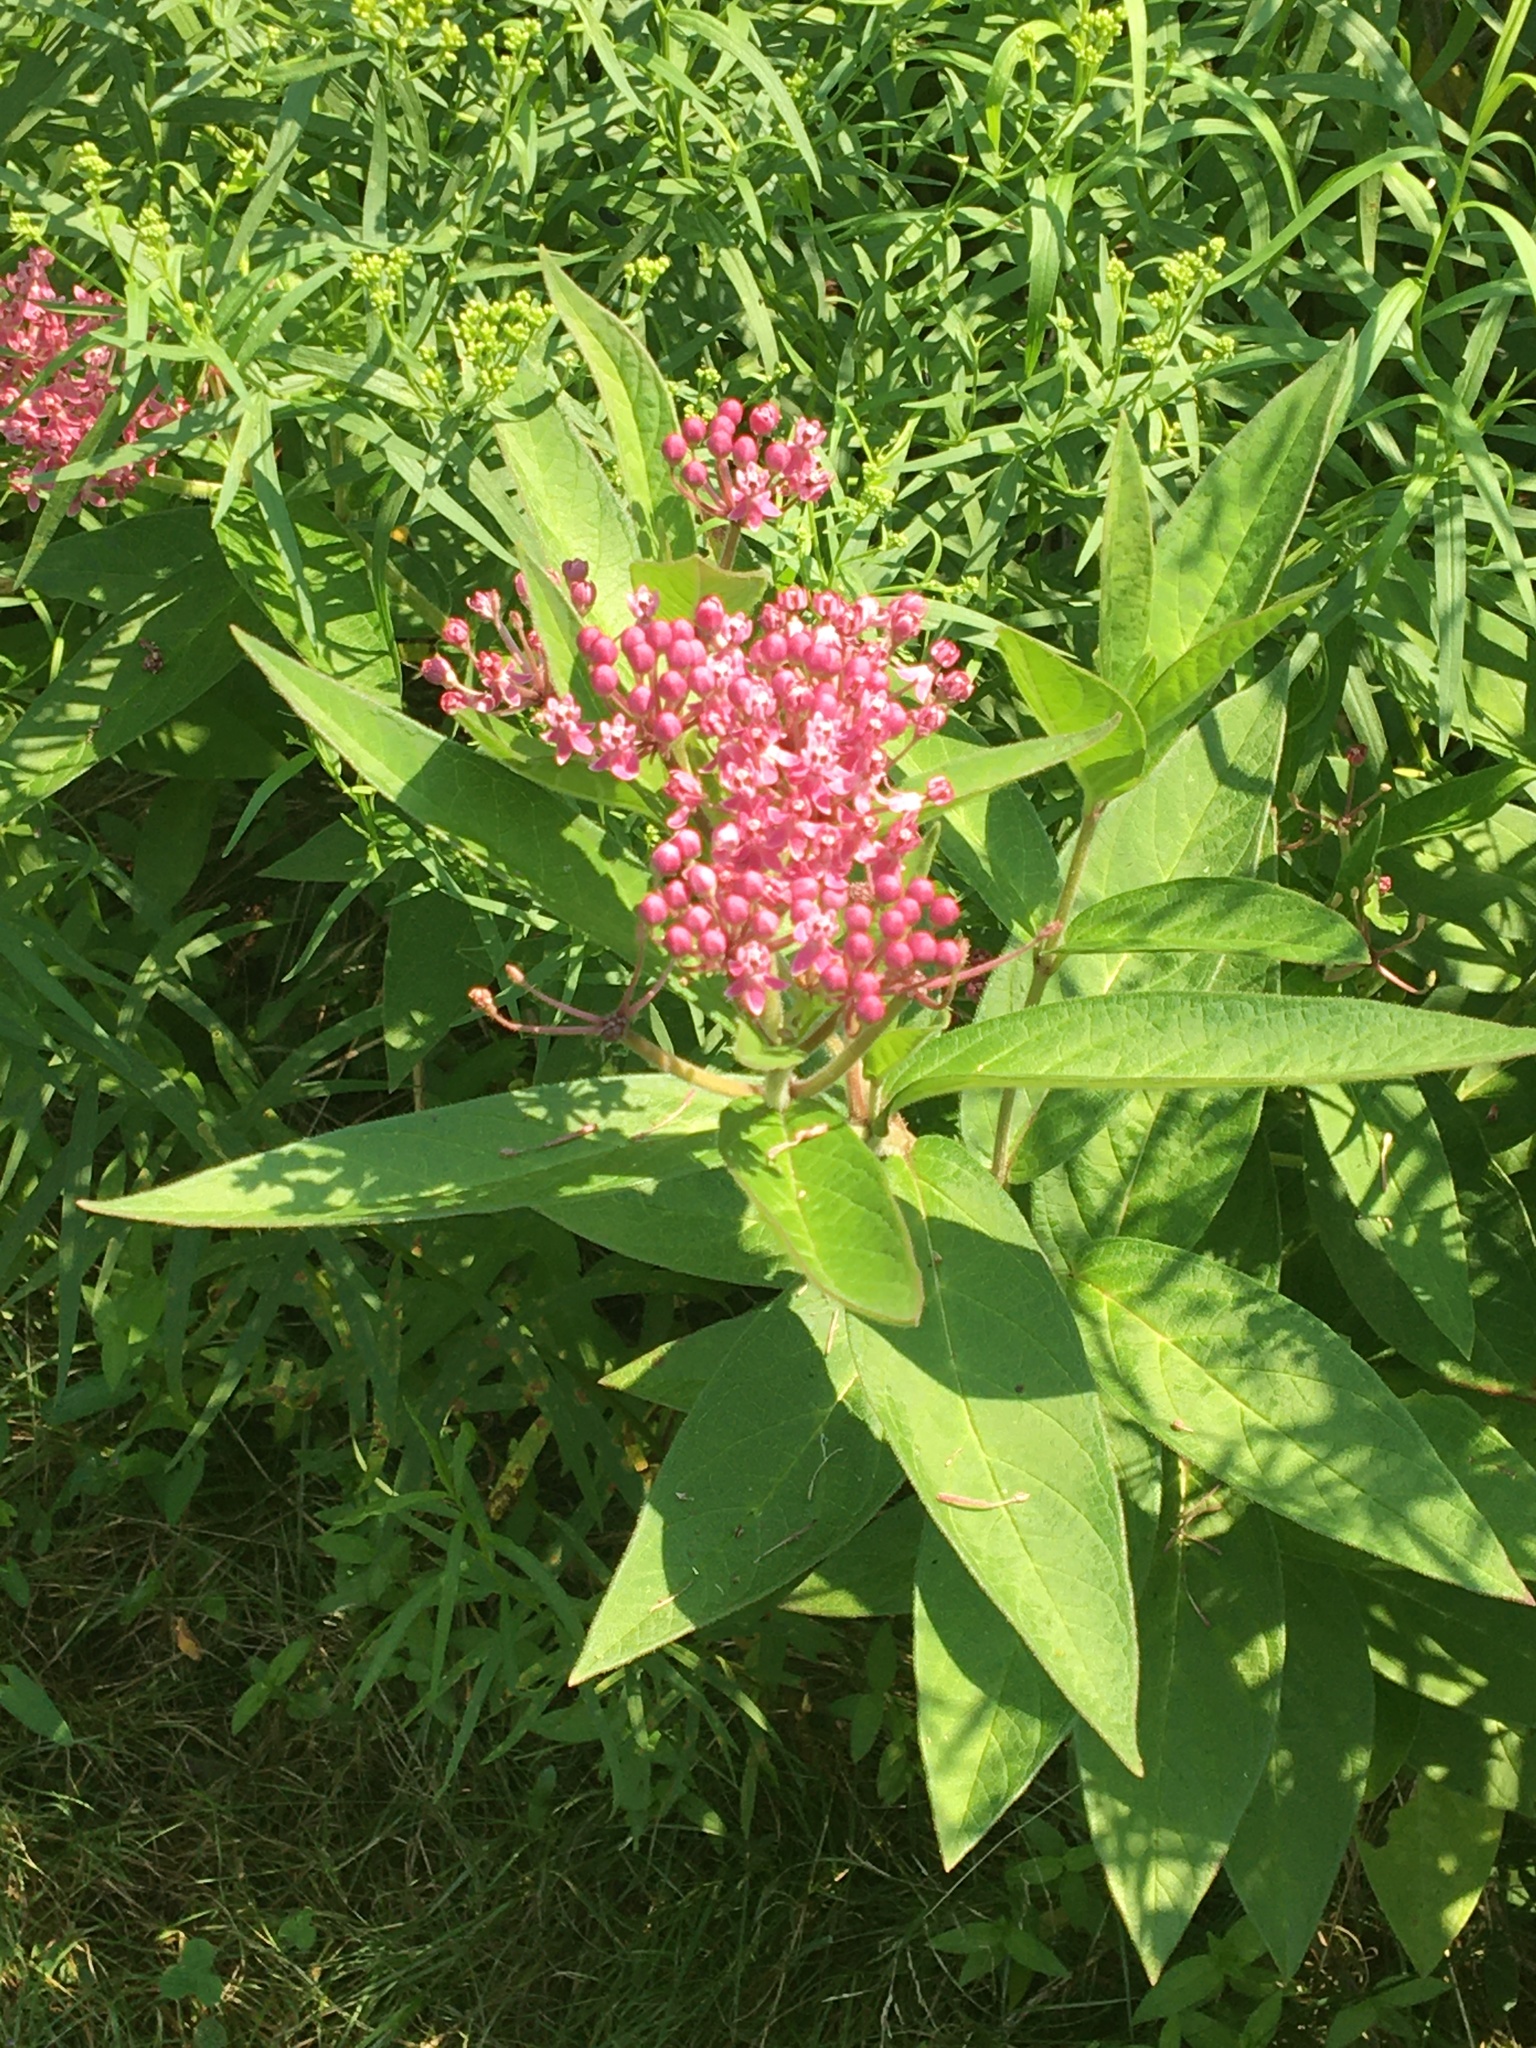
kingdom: Plantae
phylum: Tracheophyta
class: Magnoliopsida
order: Gentianales
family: Apocynaceae
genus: Asclepias
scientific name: Asclepias incarnata
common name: Swamp milkweed
